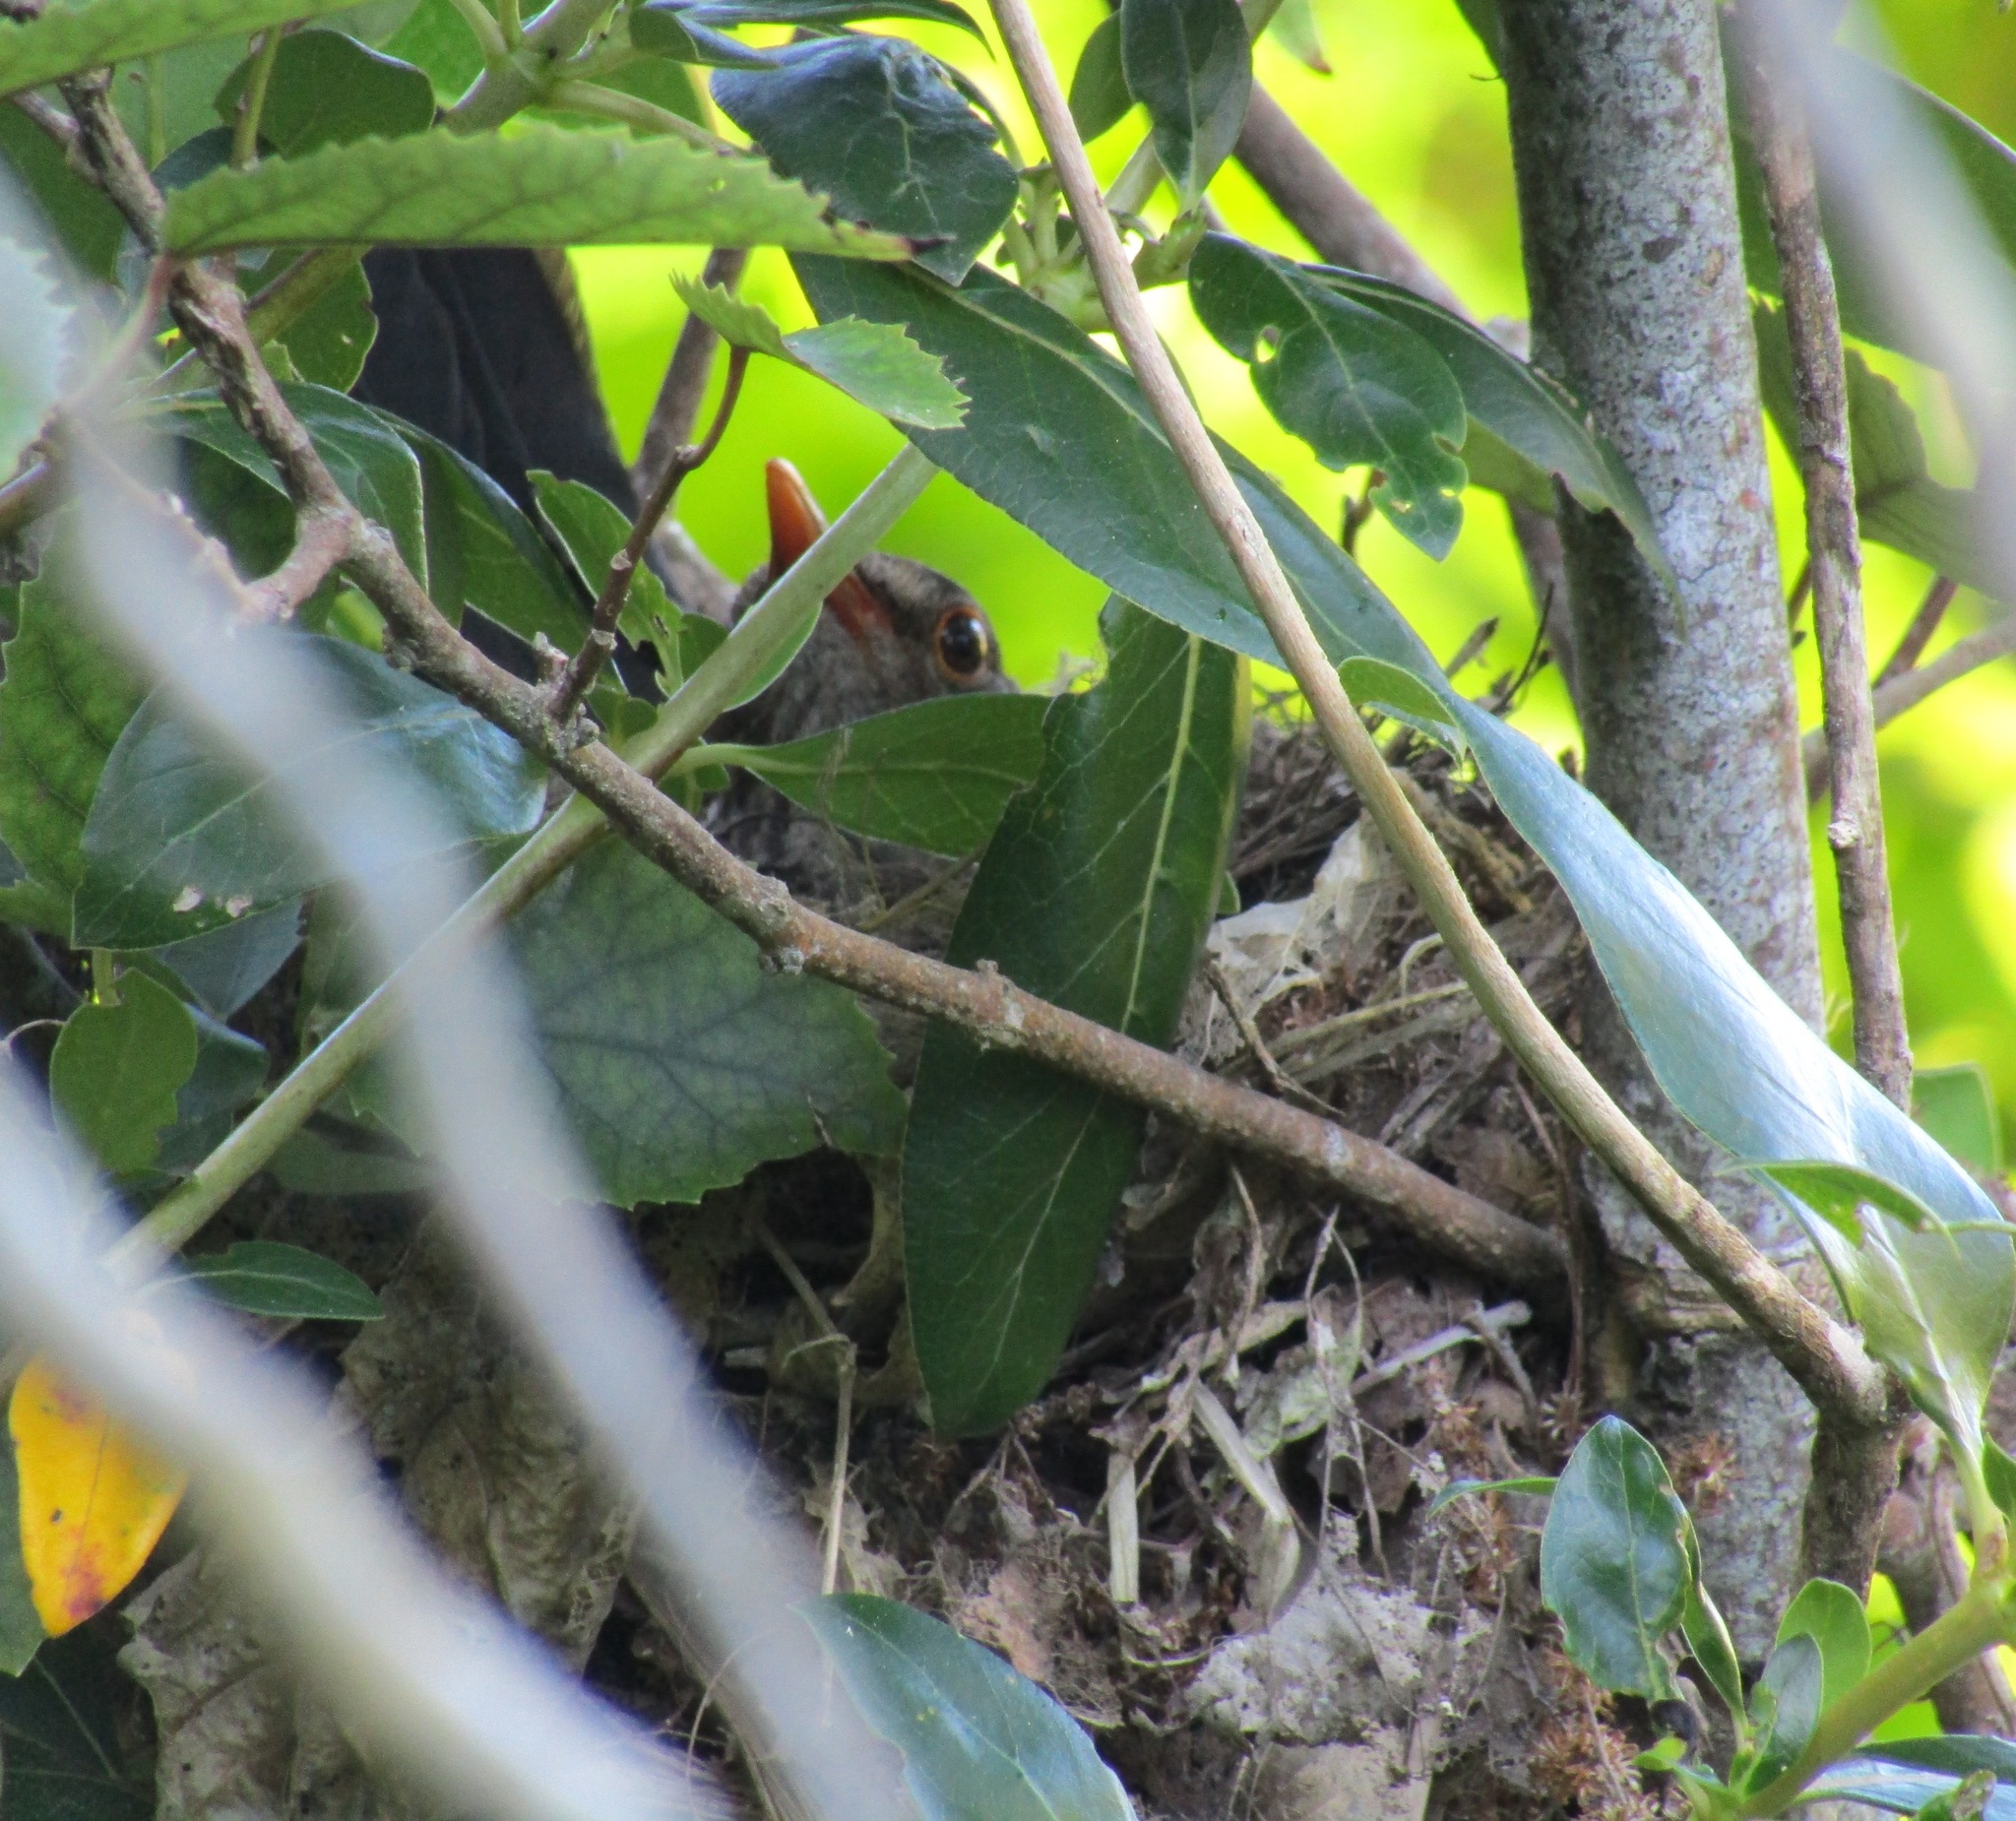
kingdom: Animalia
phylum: Chordata
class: Aves
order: Passeriformes
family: Turdidae
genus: Turdus
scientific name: Turdus merula
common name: Common blackbird
